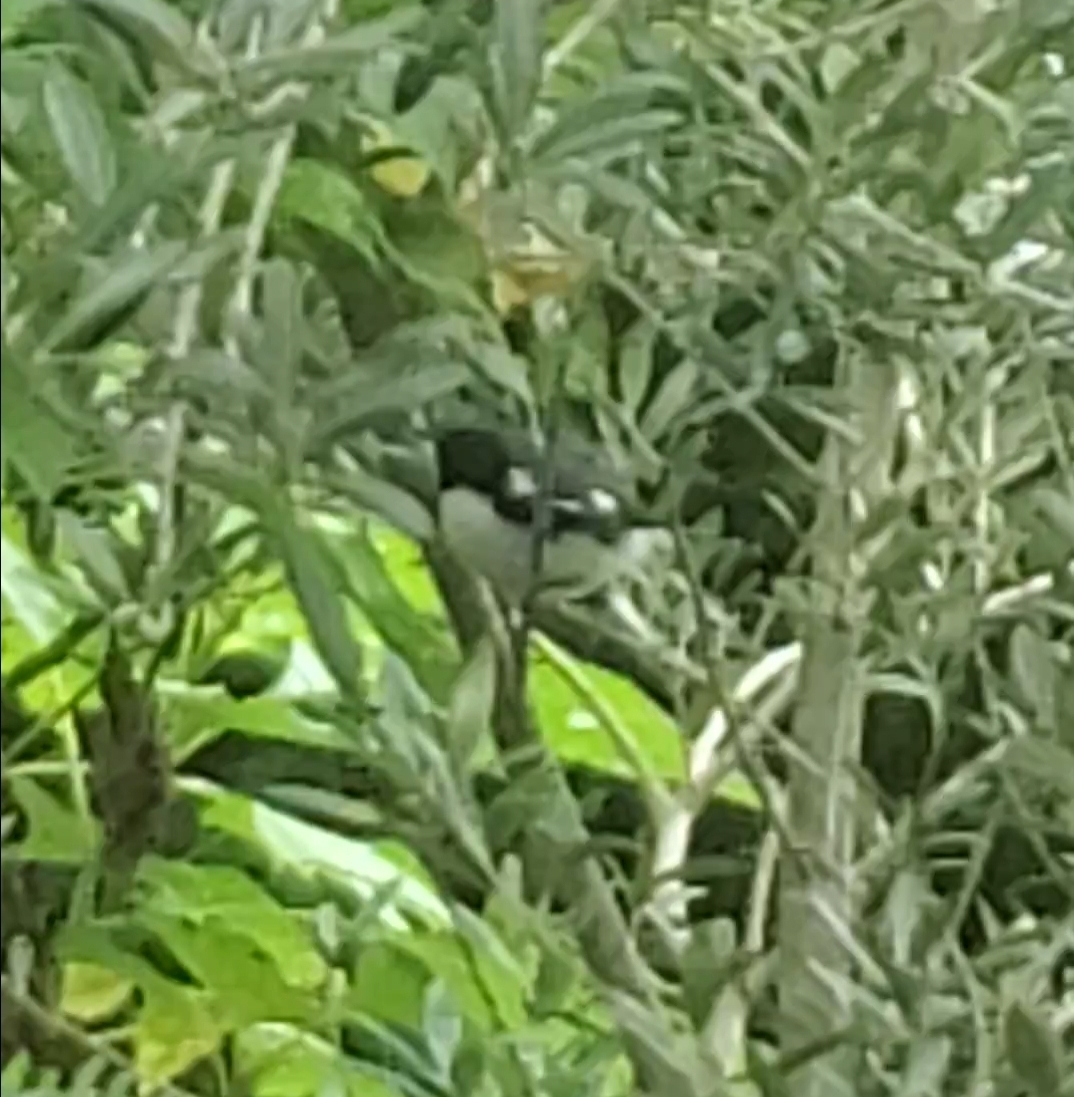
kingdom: Animalia
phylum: Chordata
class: Aves
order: Passeriformes
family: Parulidae
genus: Setophaga
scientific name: Setophaga caerulescens
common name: Black-throated blue warbler
